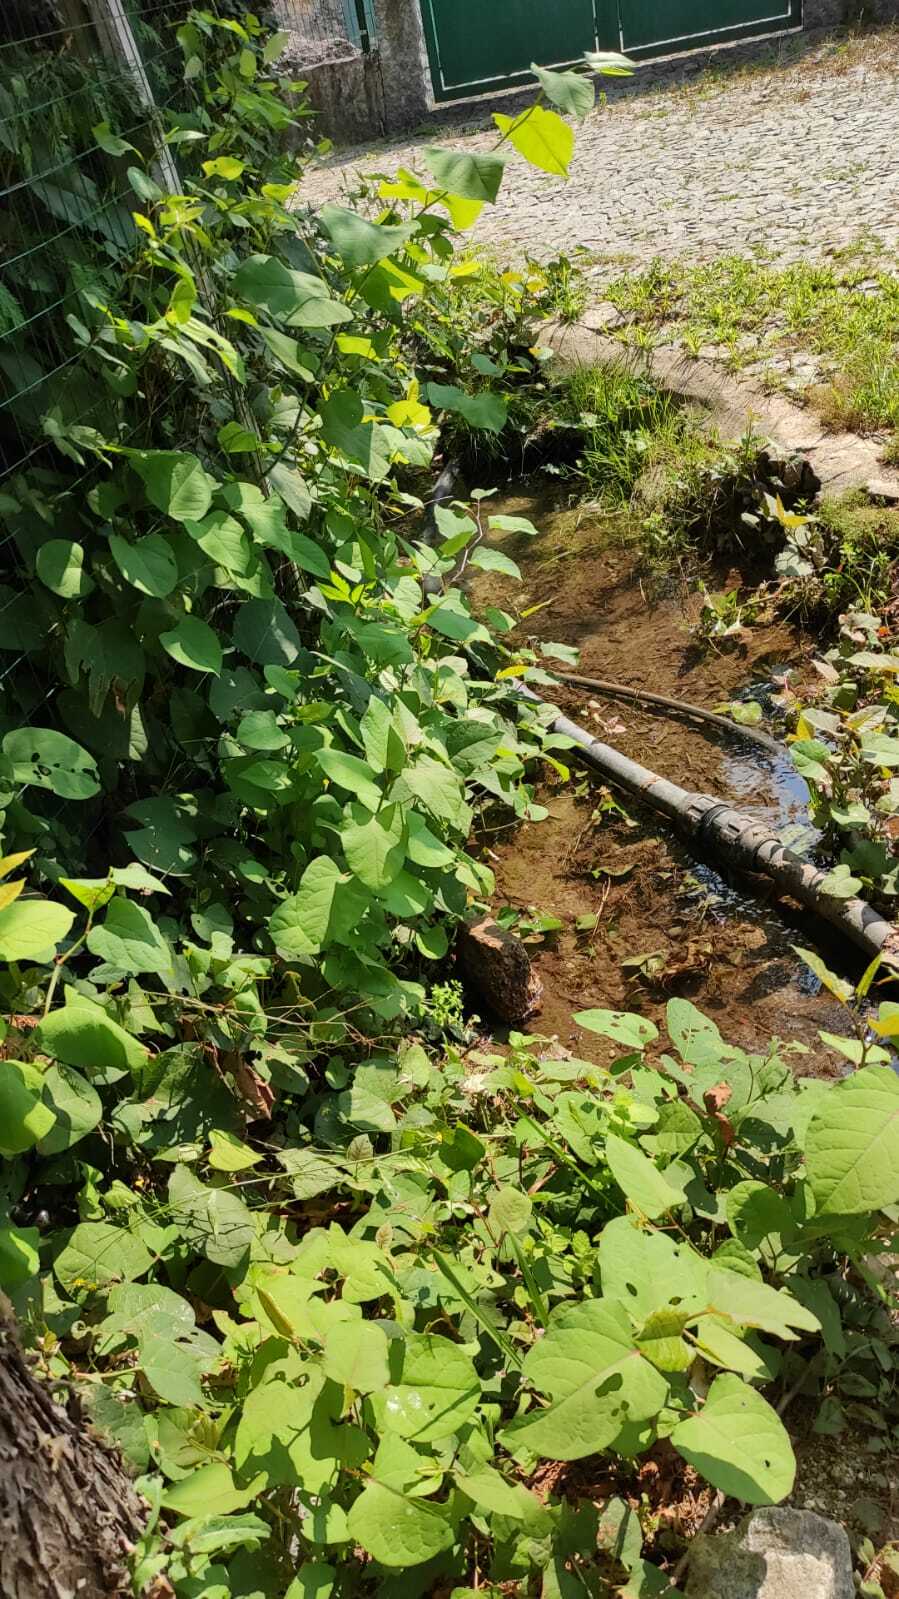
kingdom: Plantae
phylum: Tracheophyta
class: Magnoliopsida
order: Caryophyllales
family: Polygonaceae
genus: Reynoutria
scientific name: Reynoutria japonica
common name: Japanese knotweed
